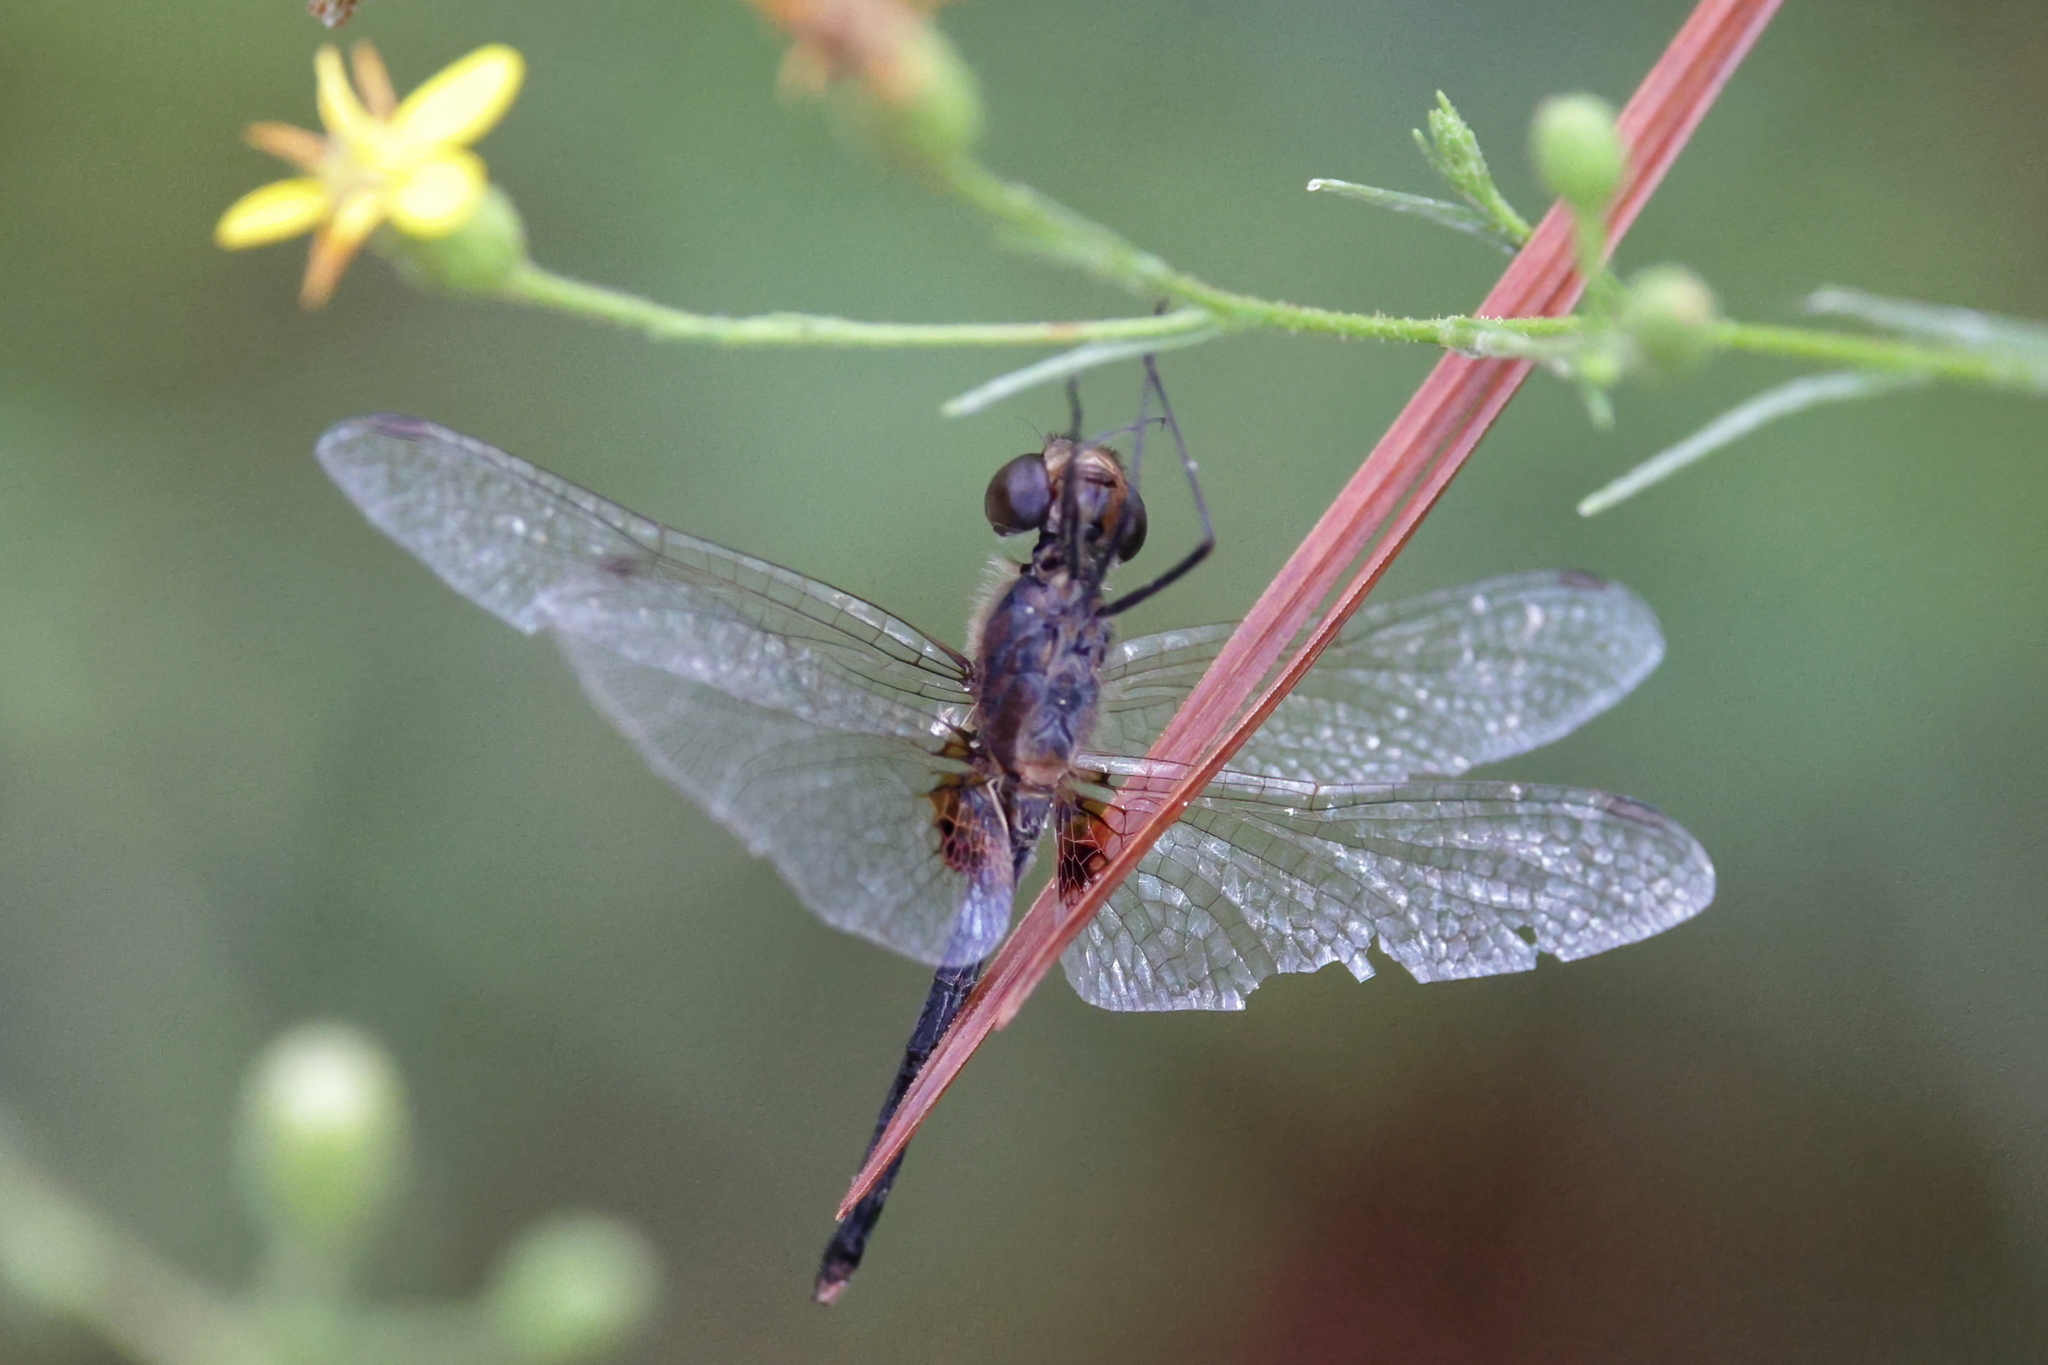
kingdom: Animalia
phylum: Arthropoda
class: Insecta
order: Odonata
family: Libellulidae
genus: Erythrodiplax
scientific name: Erythrodiplax berenice
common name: Seaside dragonlet
